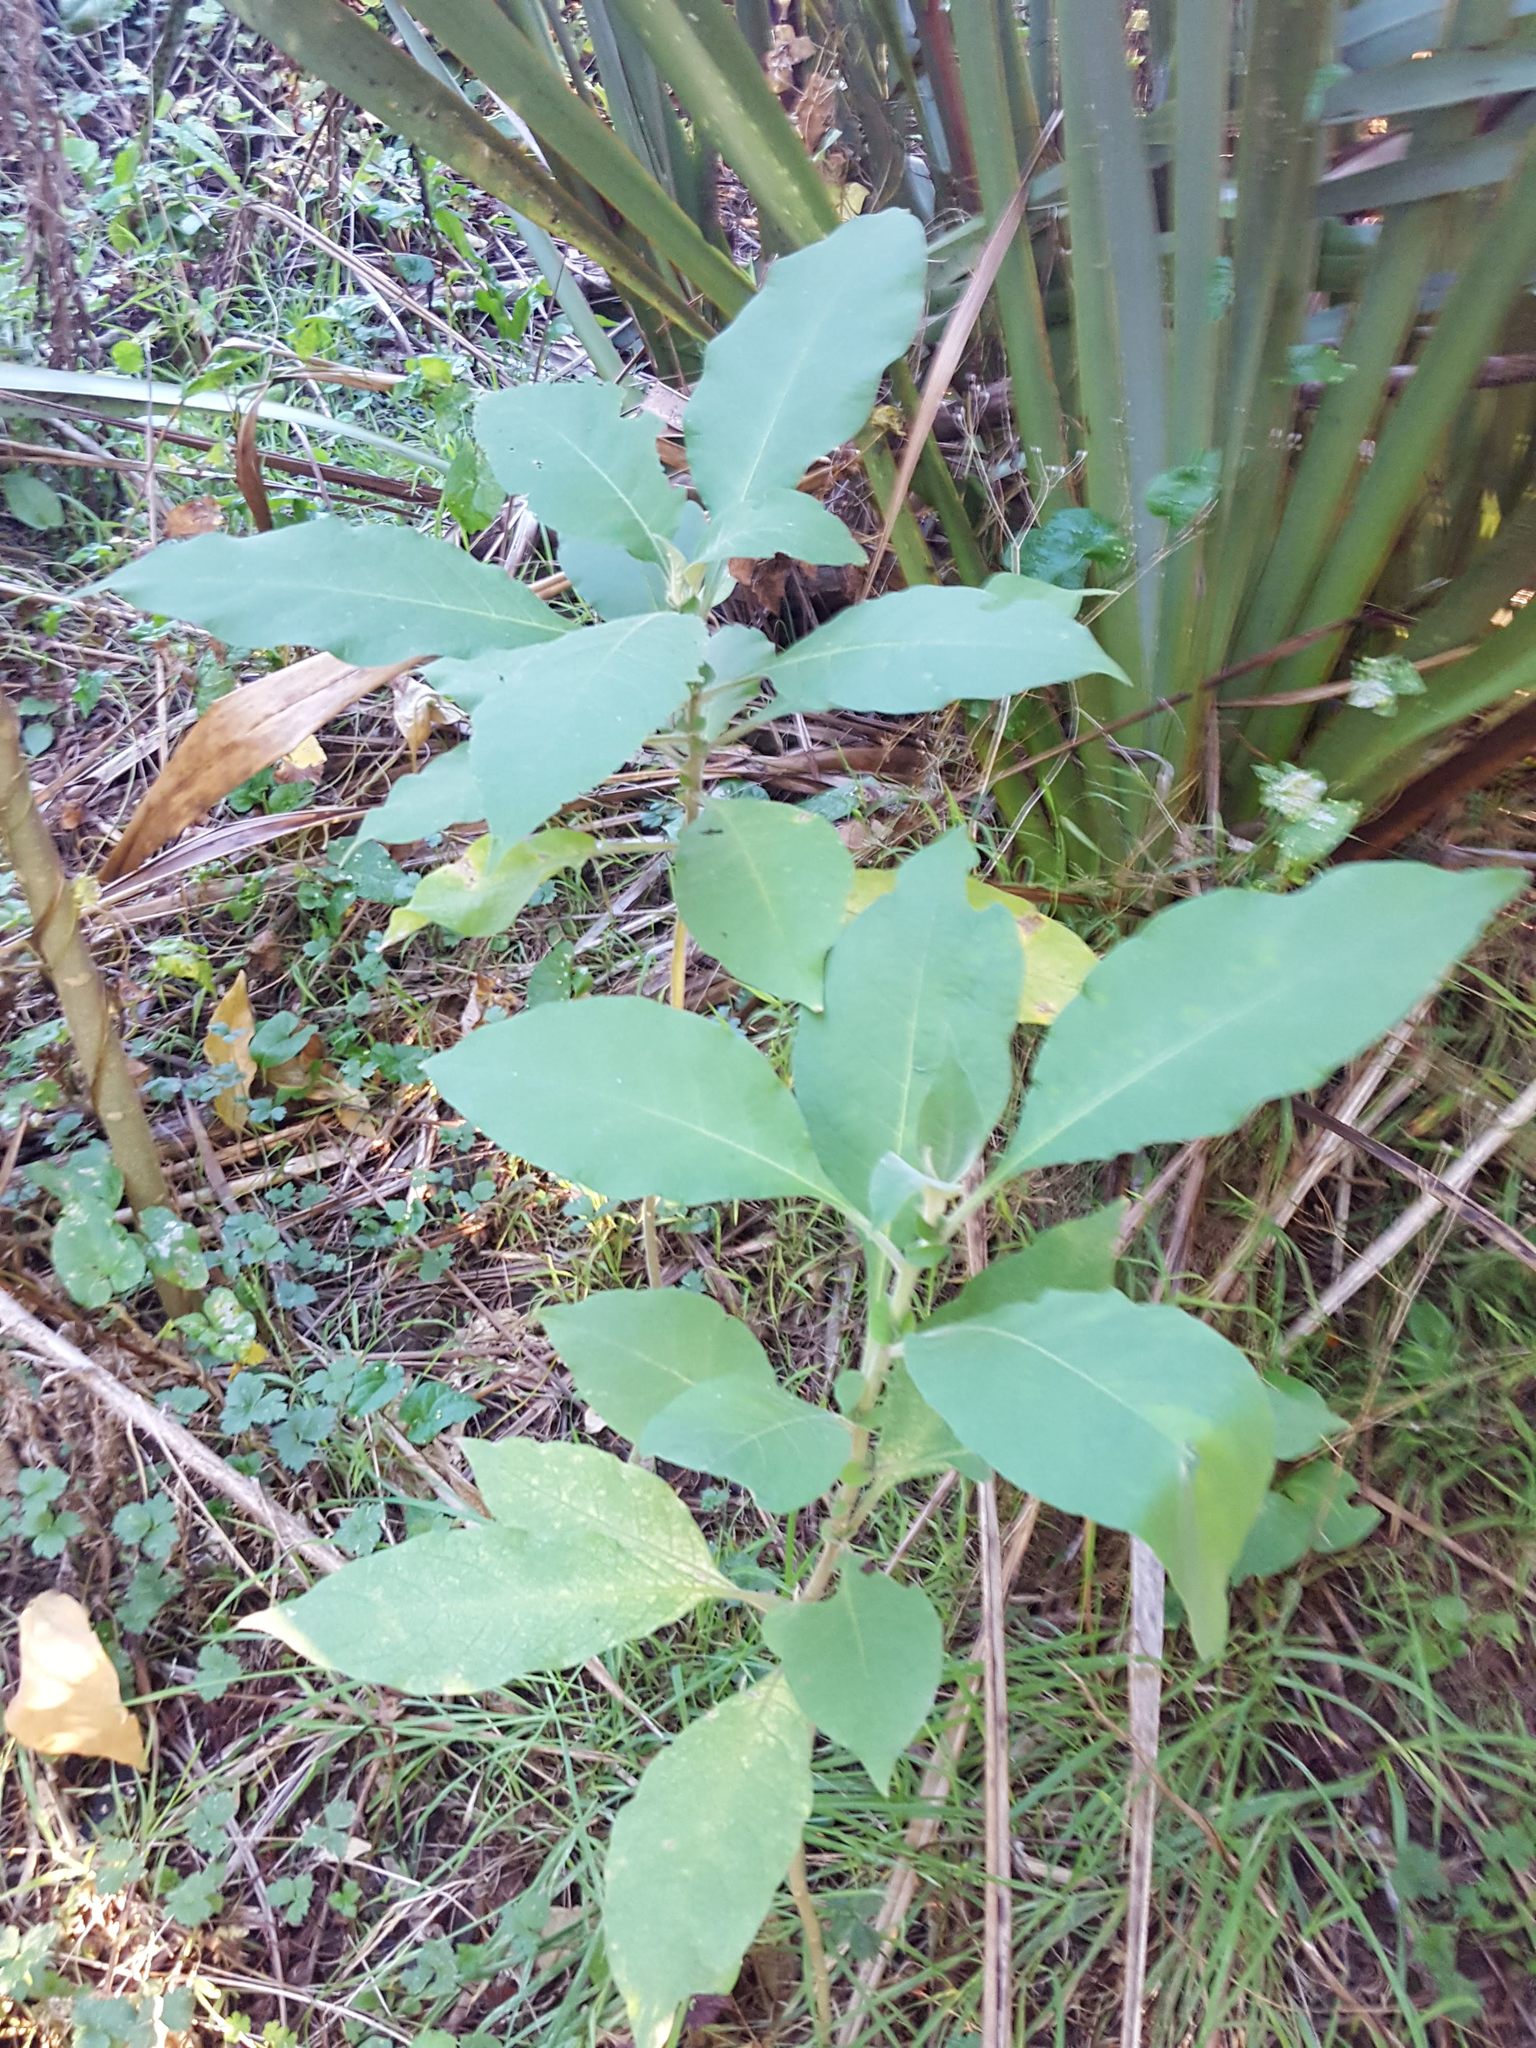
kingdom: Plantae
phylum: Tracheophyta
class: Magnoliopsida
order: Solanales
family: Solanaceae
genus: Solanum
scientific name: Solanum mauritianum
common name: Earleaf nightshade
